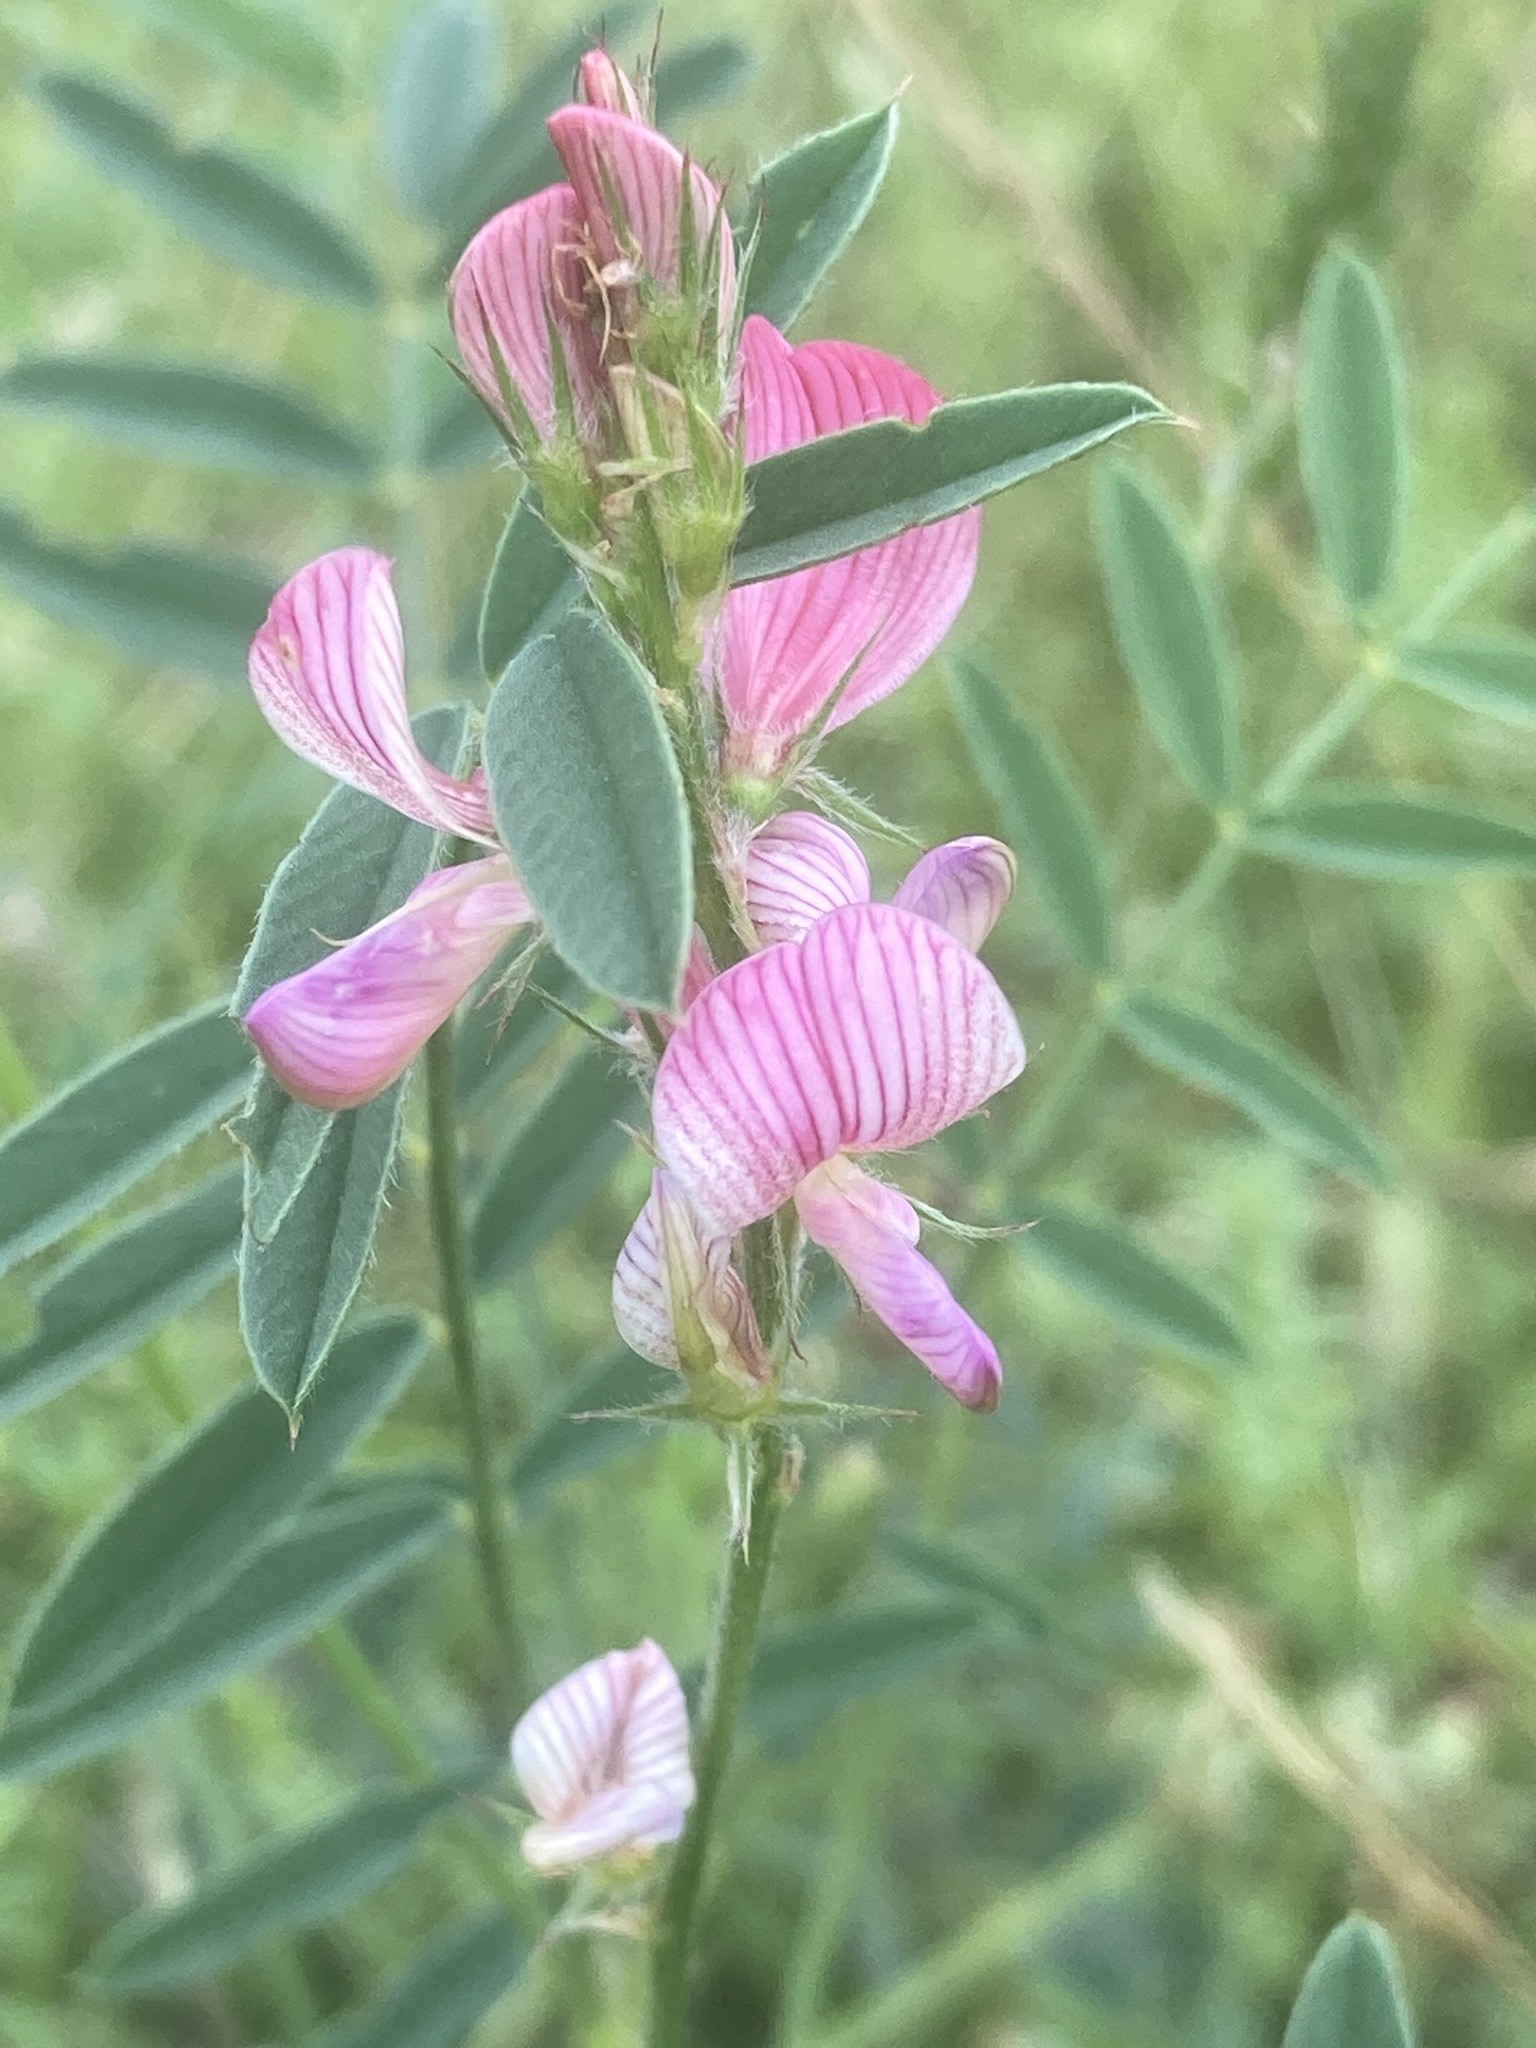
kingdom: Plantae
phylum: Tracheophyta
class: Magnoliopsida
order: Fabales
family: Fabaceae
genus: Onobrychis
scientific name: Onobrychis viciifolia
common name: Sainfoin
